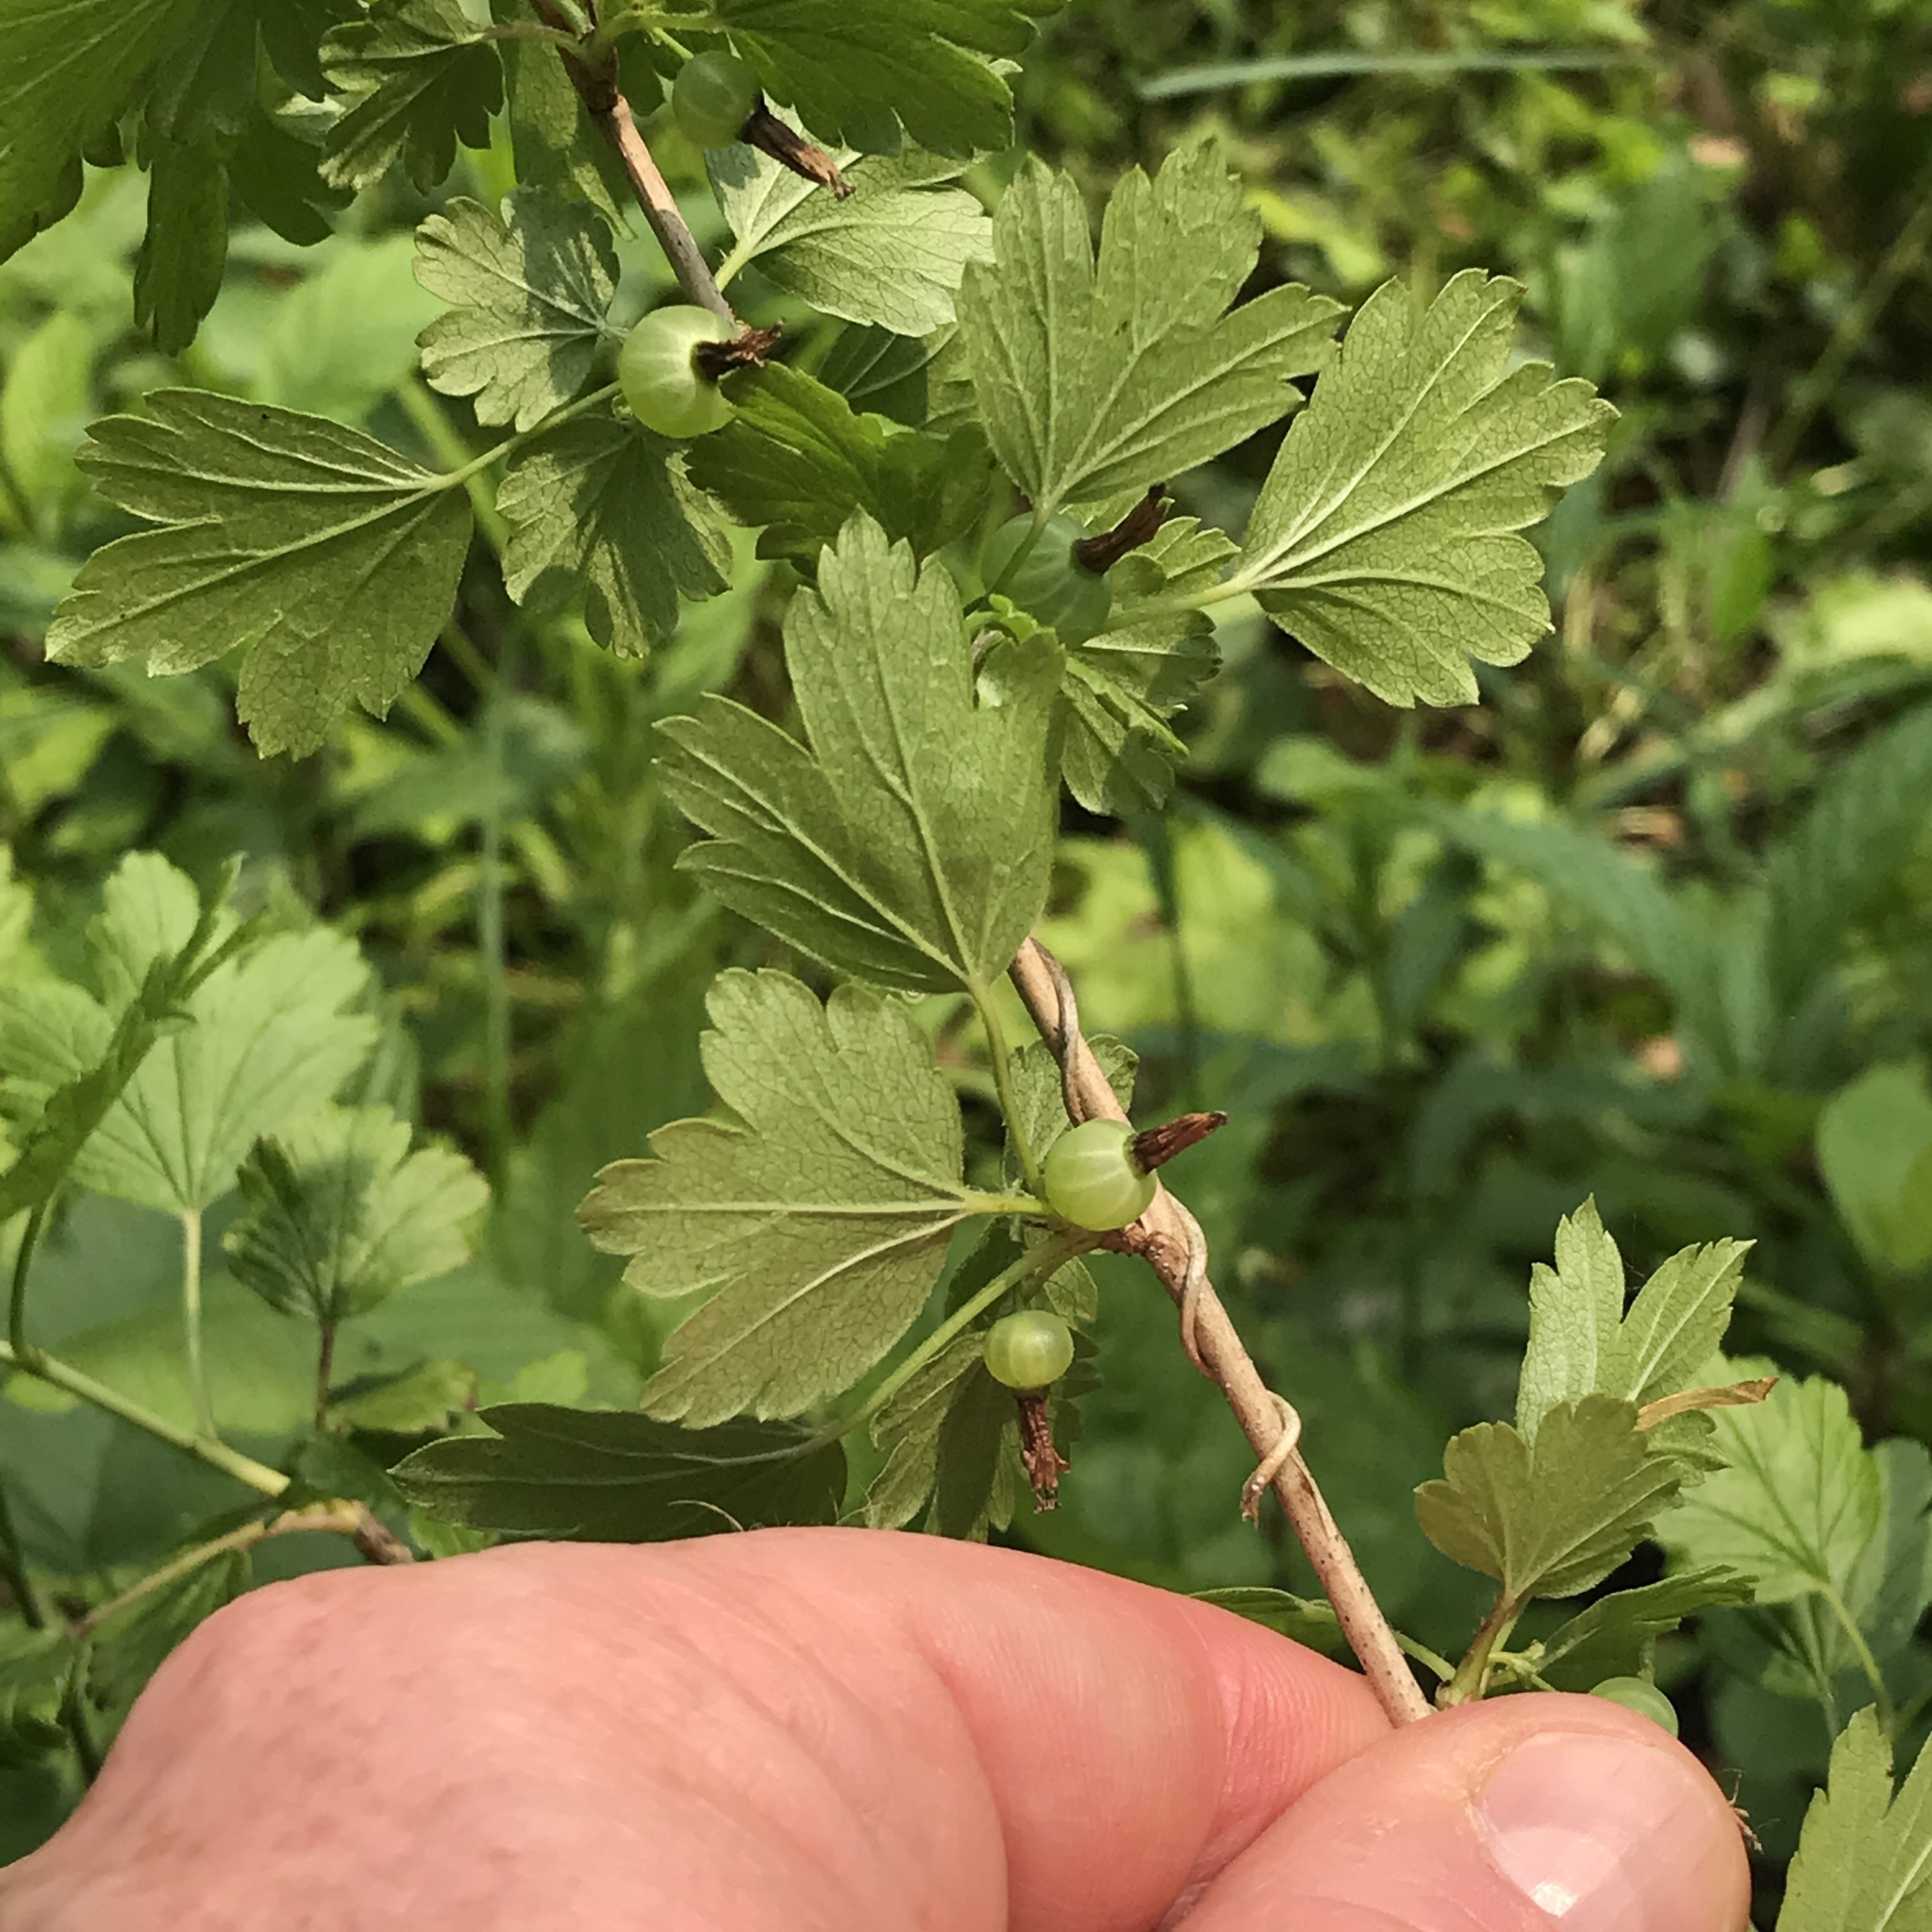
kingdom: Plantae
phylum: Tracheophyta
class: Magnoliopsida
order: Saxifragales
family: Grossulariaceae
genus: Ribes
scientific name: Ribes hirtellum
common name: Hairy gooseberry
